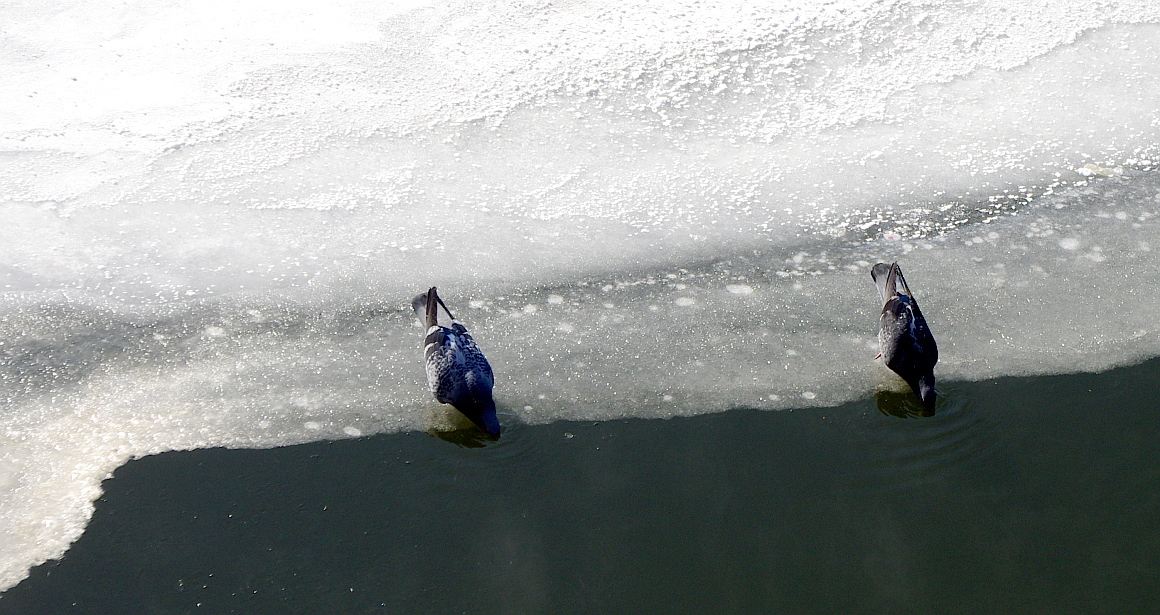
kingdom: Animalia
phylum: Chordata
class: Aves
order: Columbiformes
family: Columbidae
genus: Columba
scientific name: Columba livia
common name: Rock pigeon
